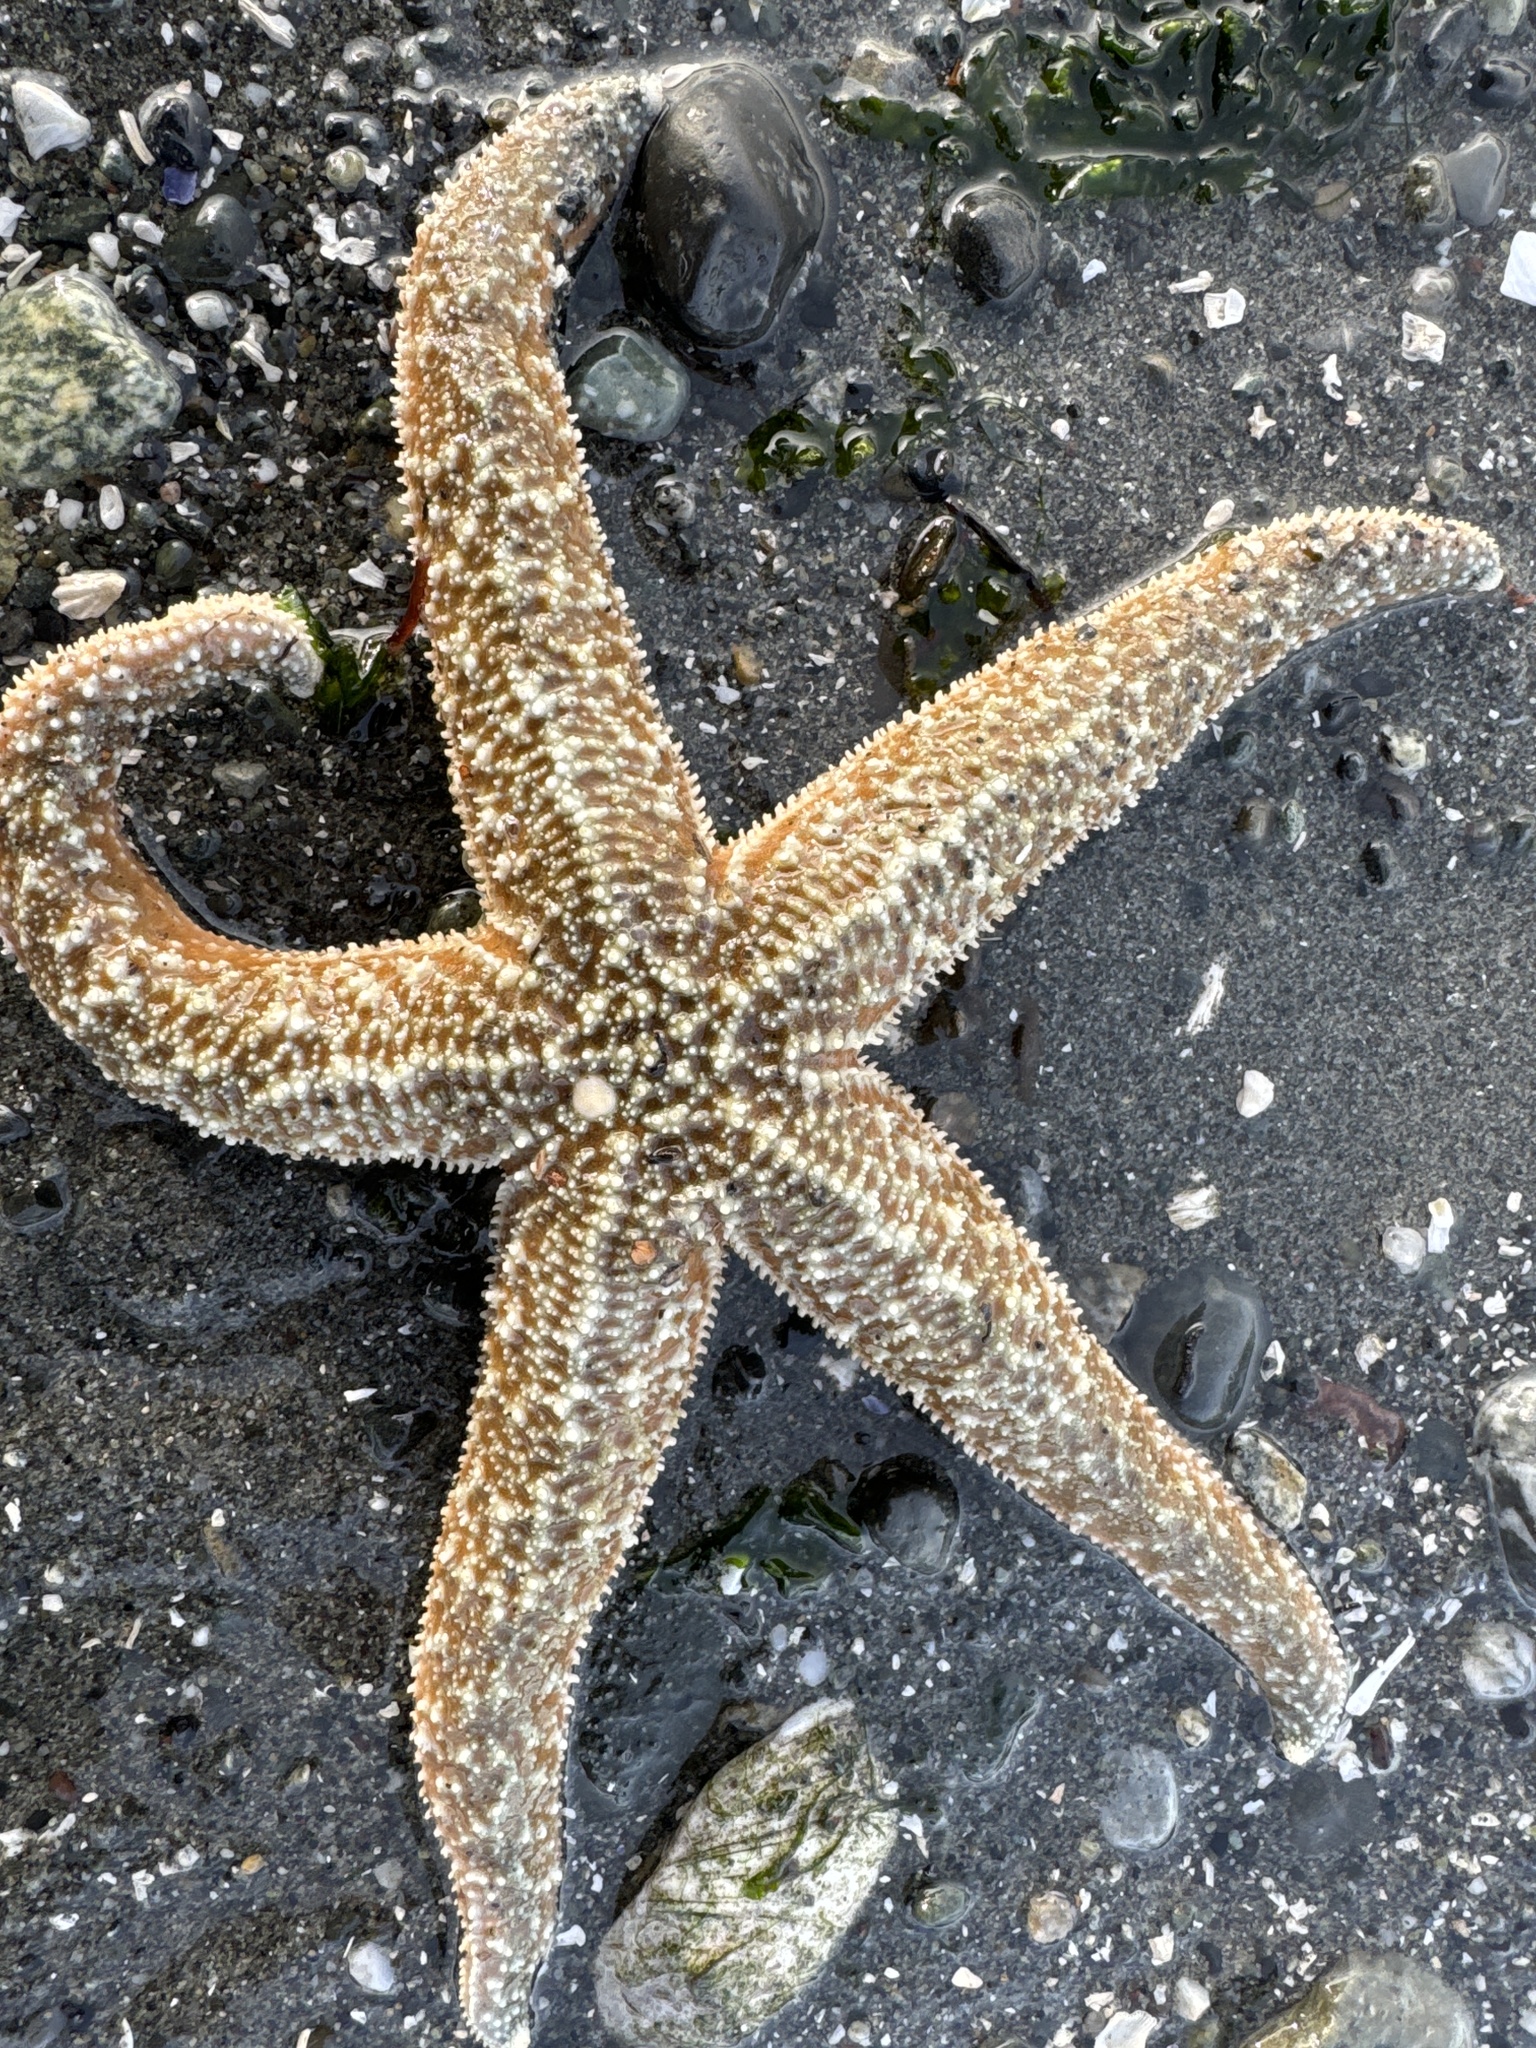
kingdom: Animalia
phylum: Echinodermata
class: Asteroidea
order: Forcipulatida
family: Asteriidae
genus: Evasterias
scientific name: Evasterias troschelii
